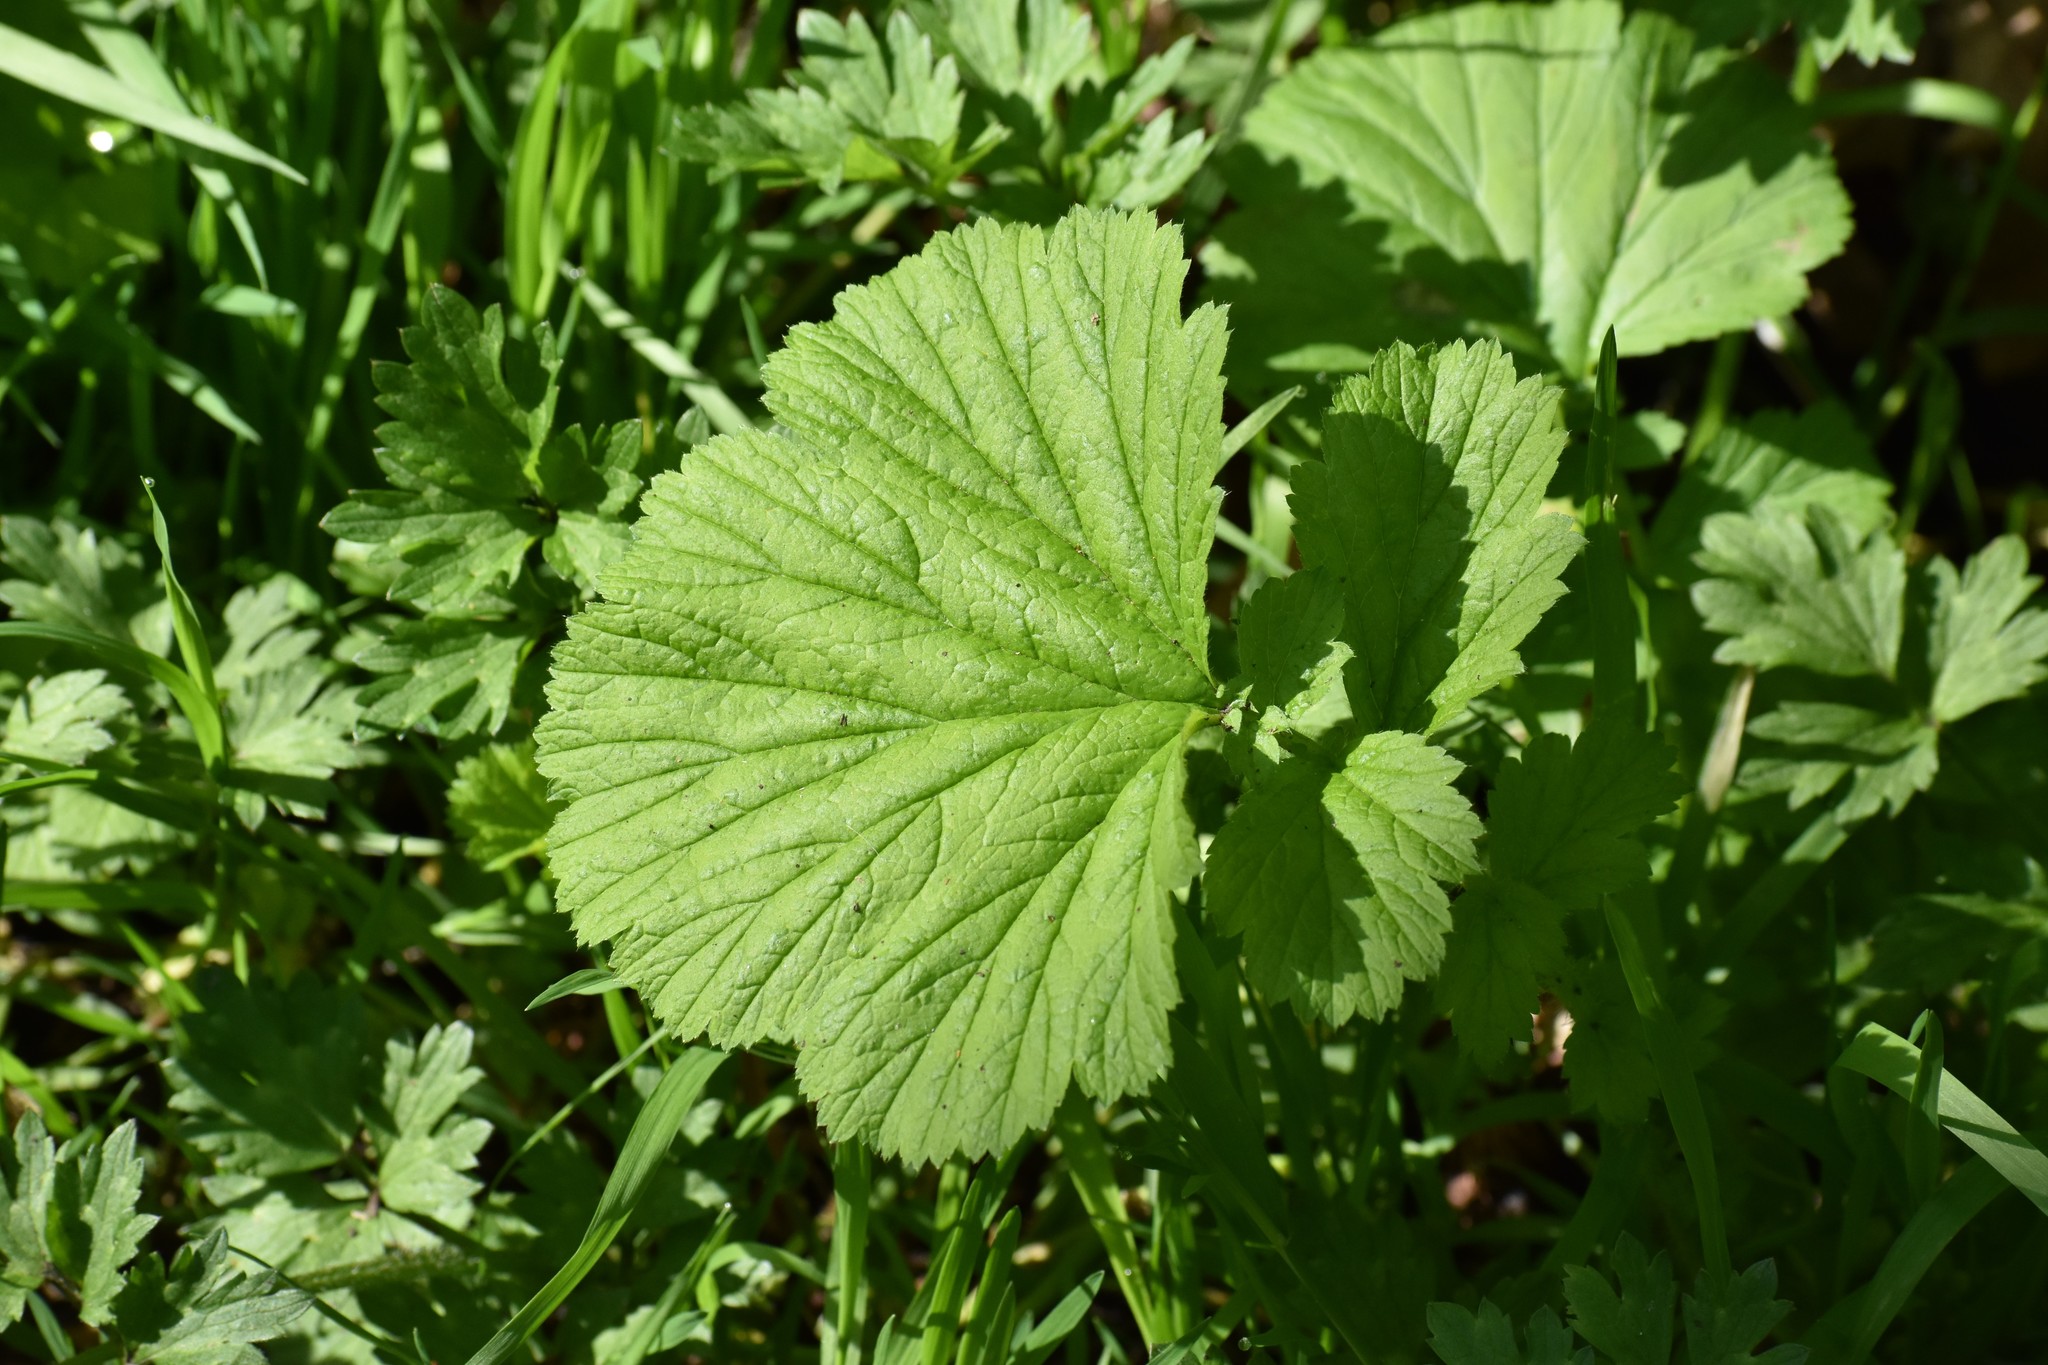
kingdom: Plantae
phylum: Tracheophyta
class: Magnoliopsida
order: Rosales
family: Rosaceae
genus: Geum
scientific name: Geum macrophyllum
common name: Large-leaved avens
